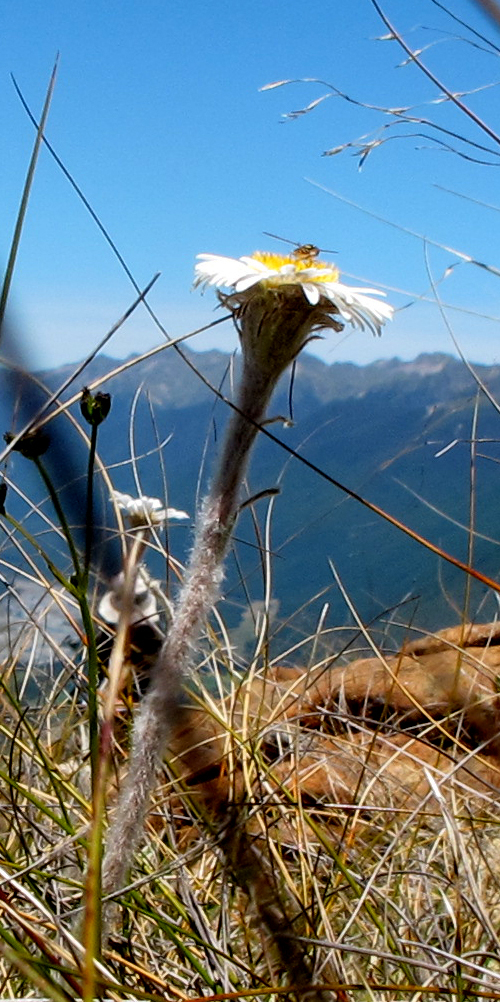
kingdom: Plantae
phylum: Tracheophyta
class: Magnoliopsida
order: Asterales
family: Asteraceae
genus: Celmisia
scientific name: Celmisia spectabilis
